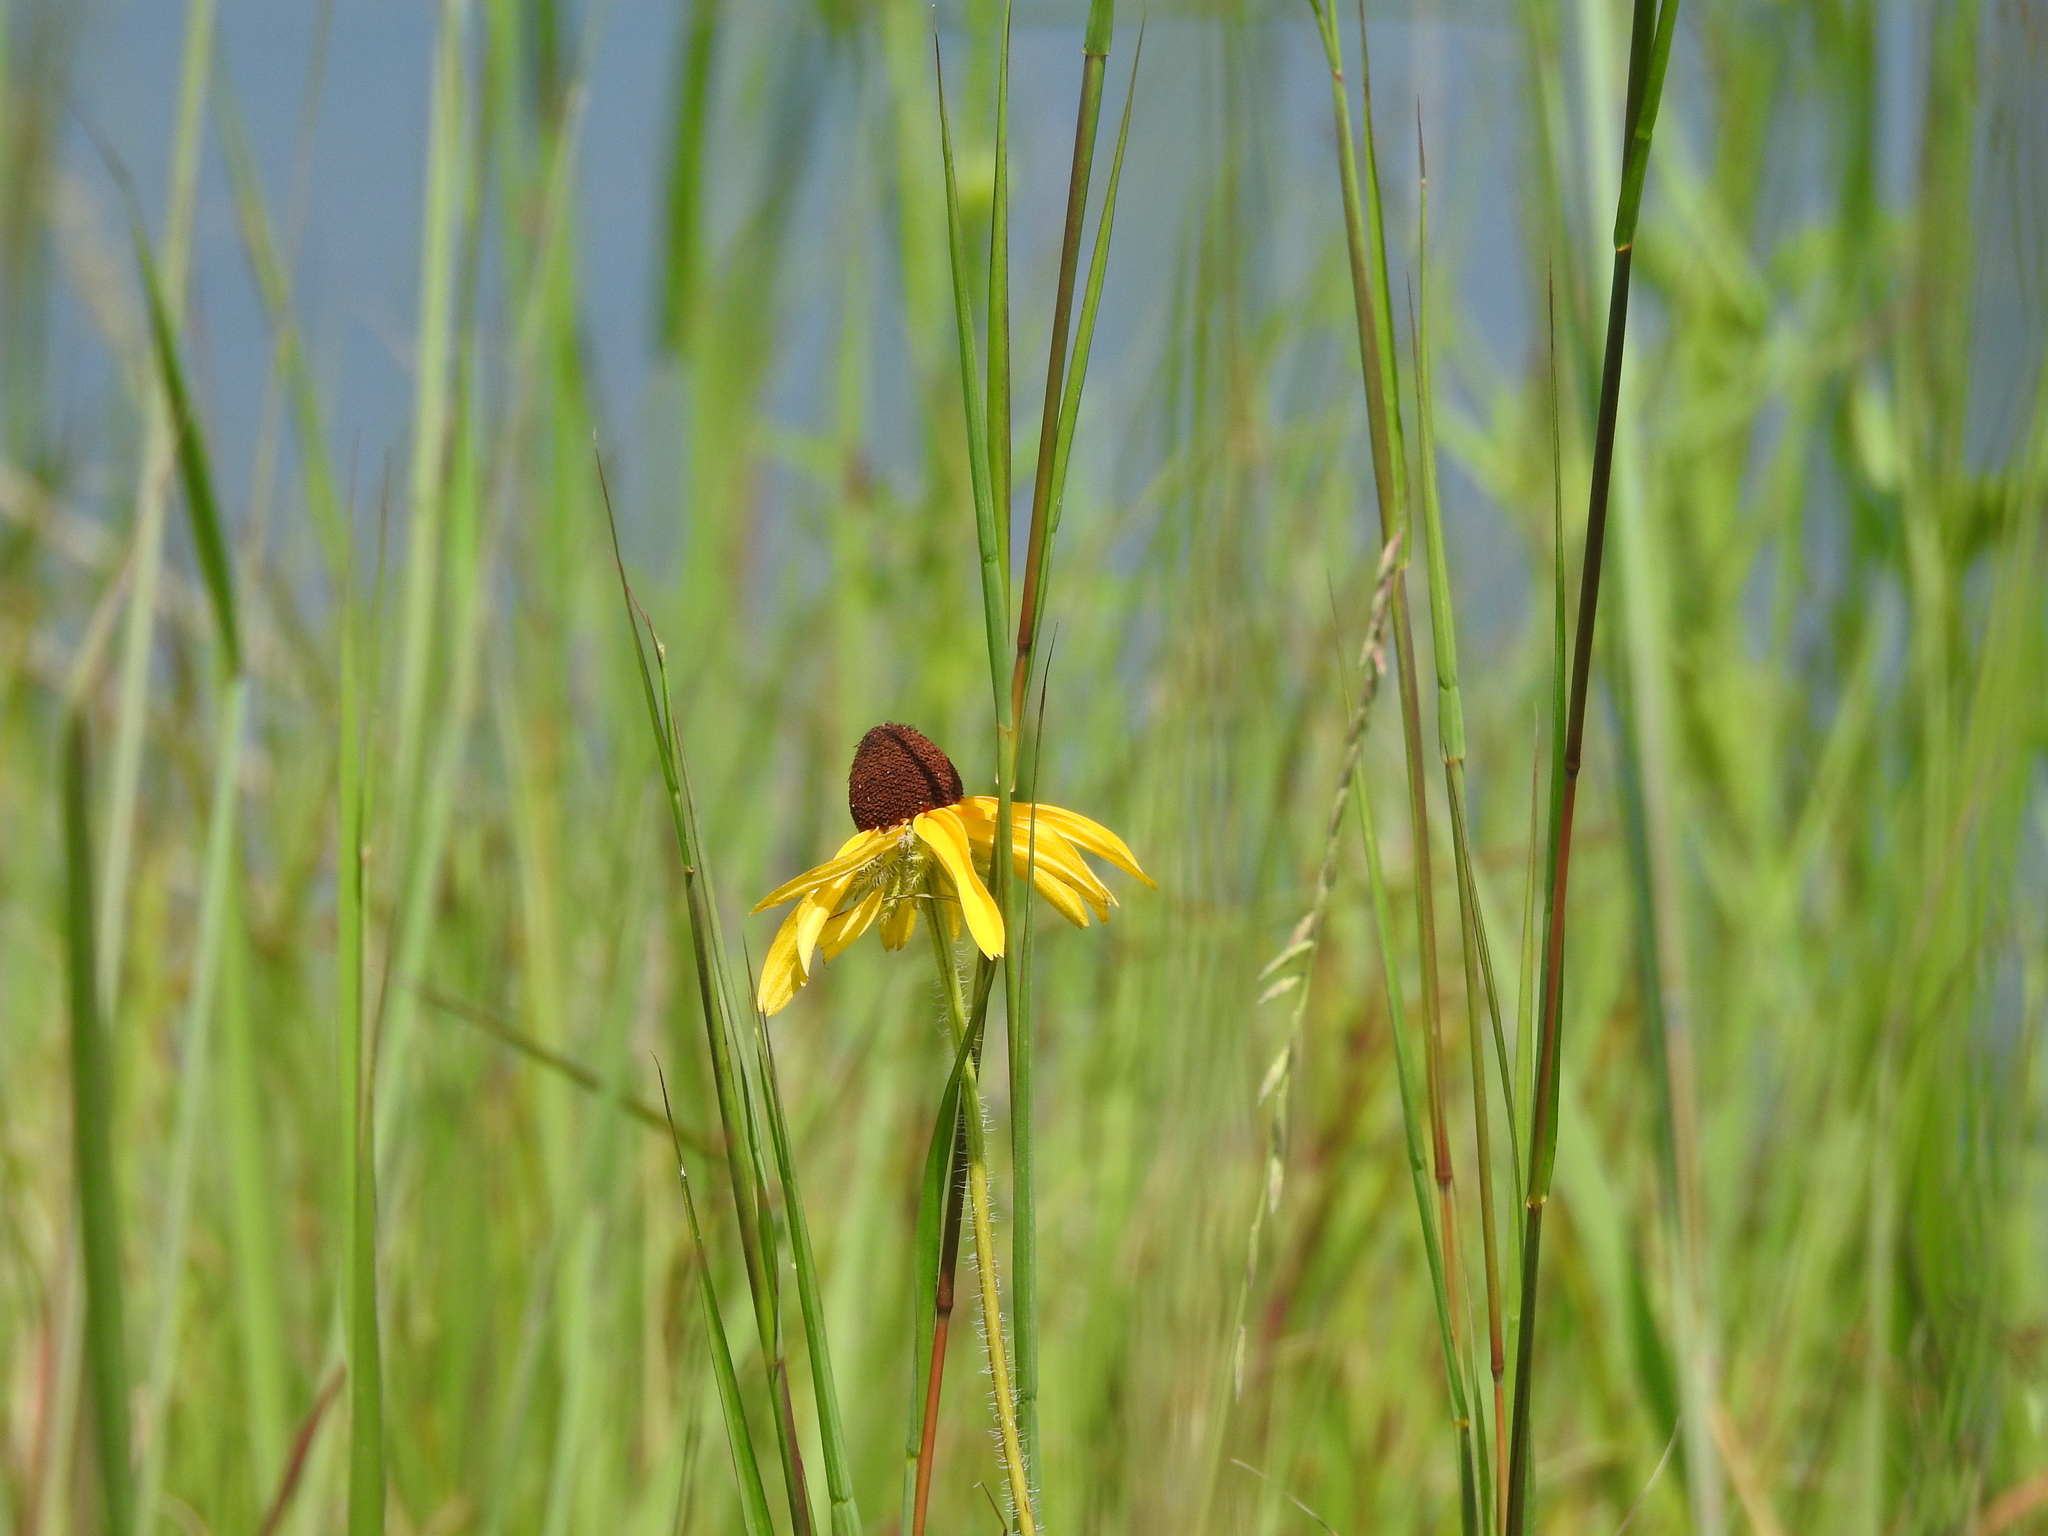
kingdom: Plantae
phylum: Tracheophyta
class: Magnoliopsida
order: Asterales
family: Asteraceae
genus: Rudbeckia
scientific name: Rudbeckia hirta
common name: Black-eyed-susan
